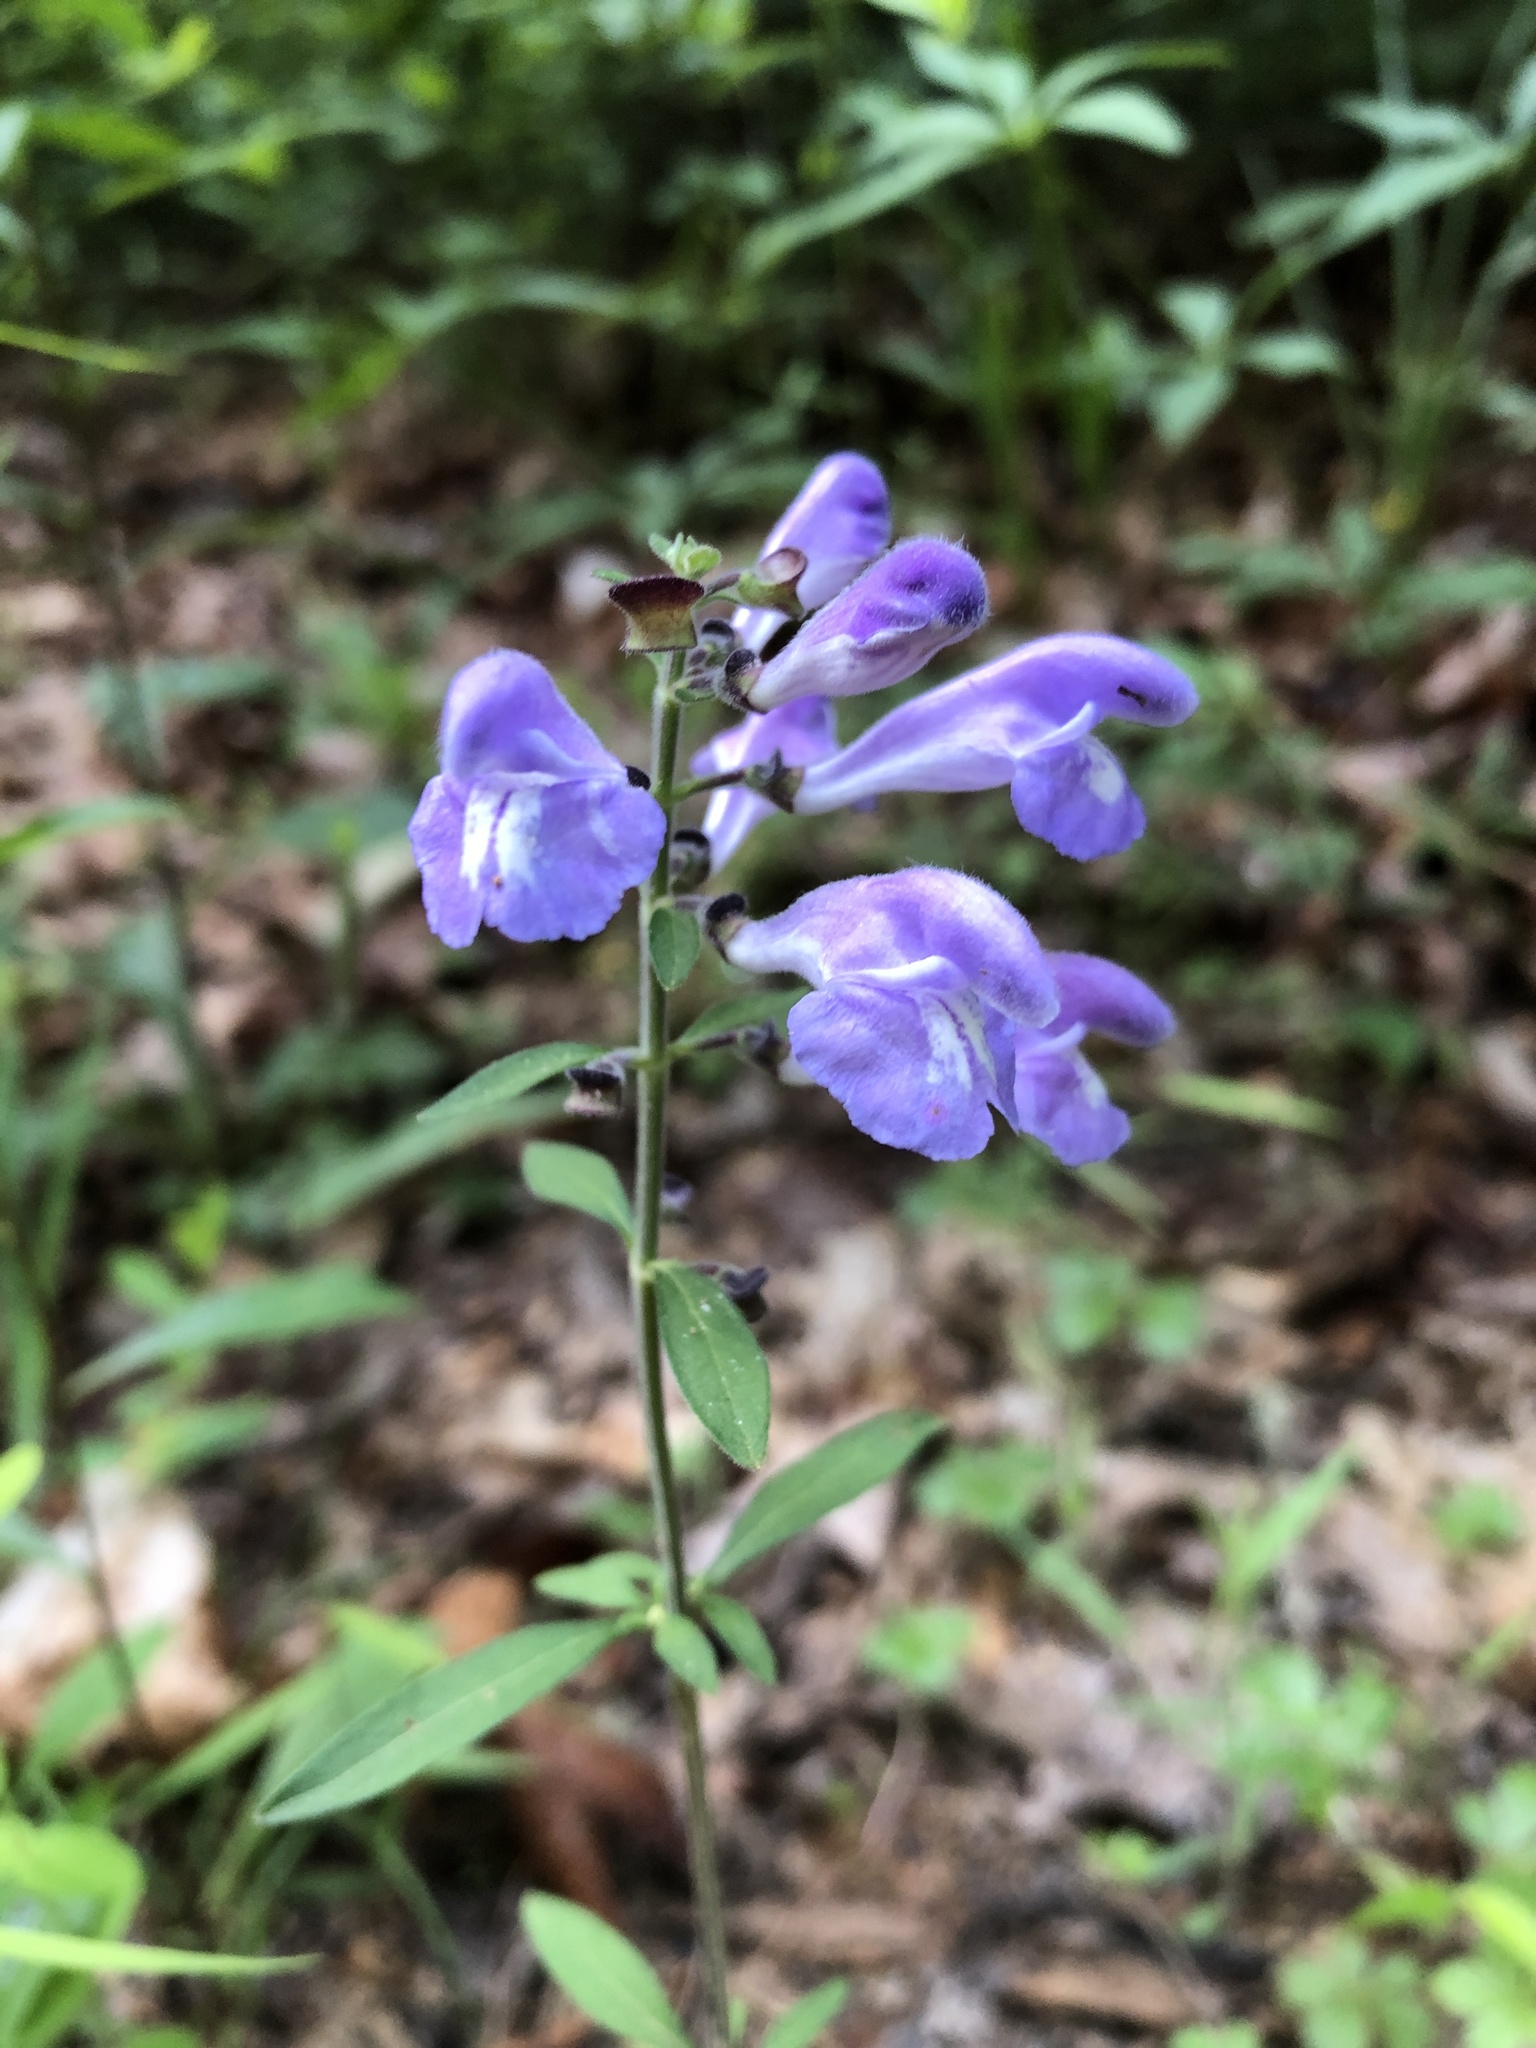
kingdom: Plantae
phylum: Tracheophyta
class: Magnoliopsida
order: Lamiales
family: Lamiaceae
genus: Scutellaria
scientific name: Scutellaria integrifolia
